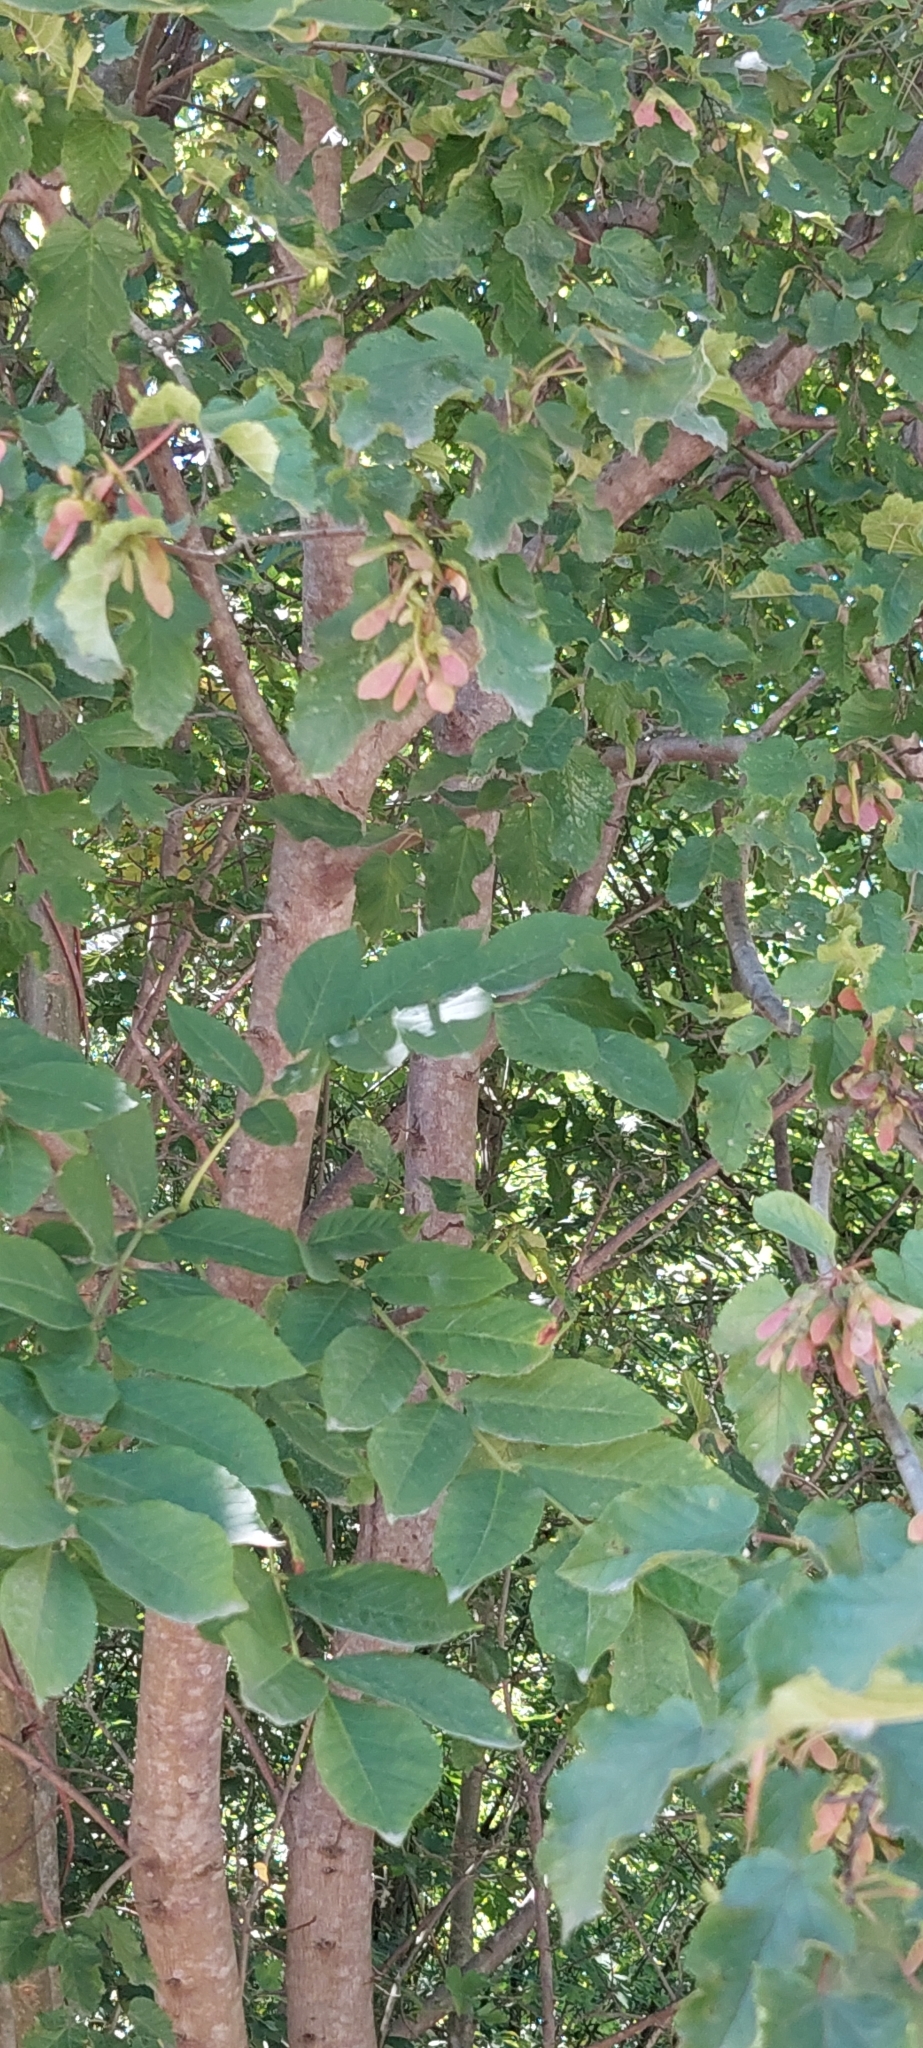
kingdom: Plantae
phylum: Tracheophyta
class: Magnoliopsida
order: Sapindales
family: Sapindaceae
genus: Acer
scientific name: Acer tataricum
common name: Tartar maple
